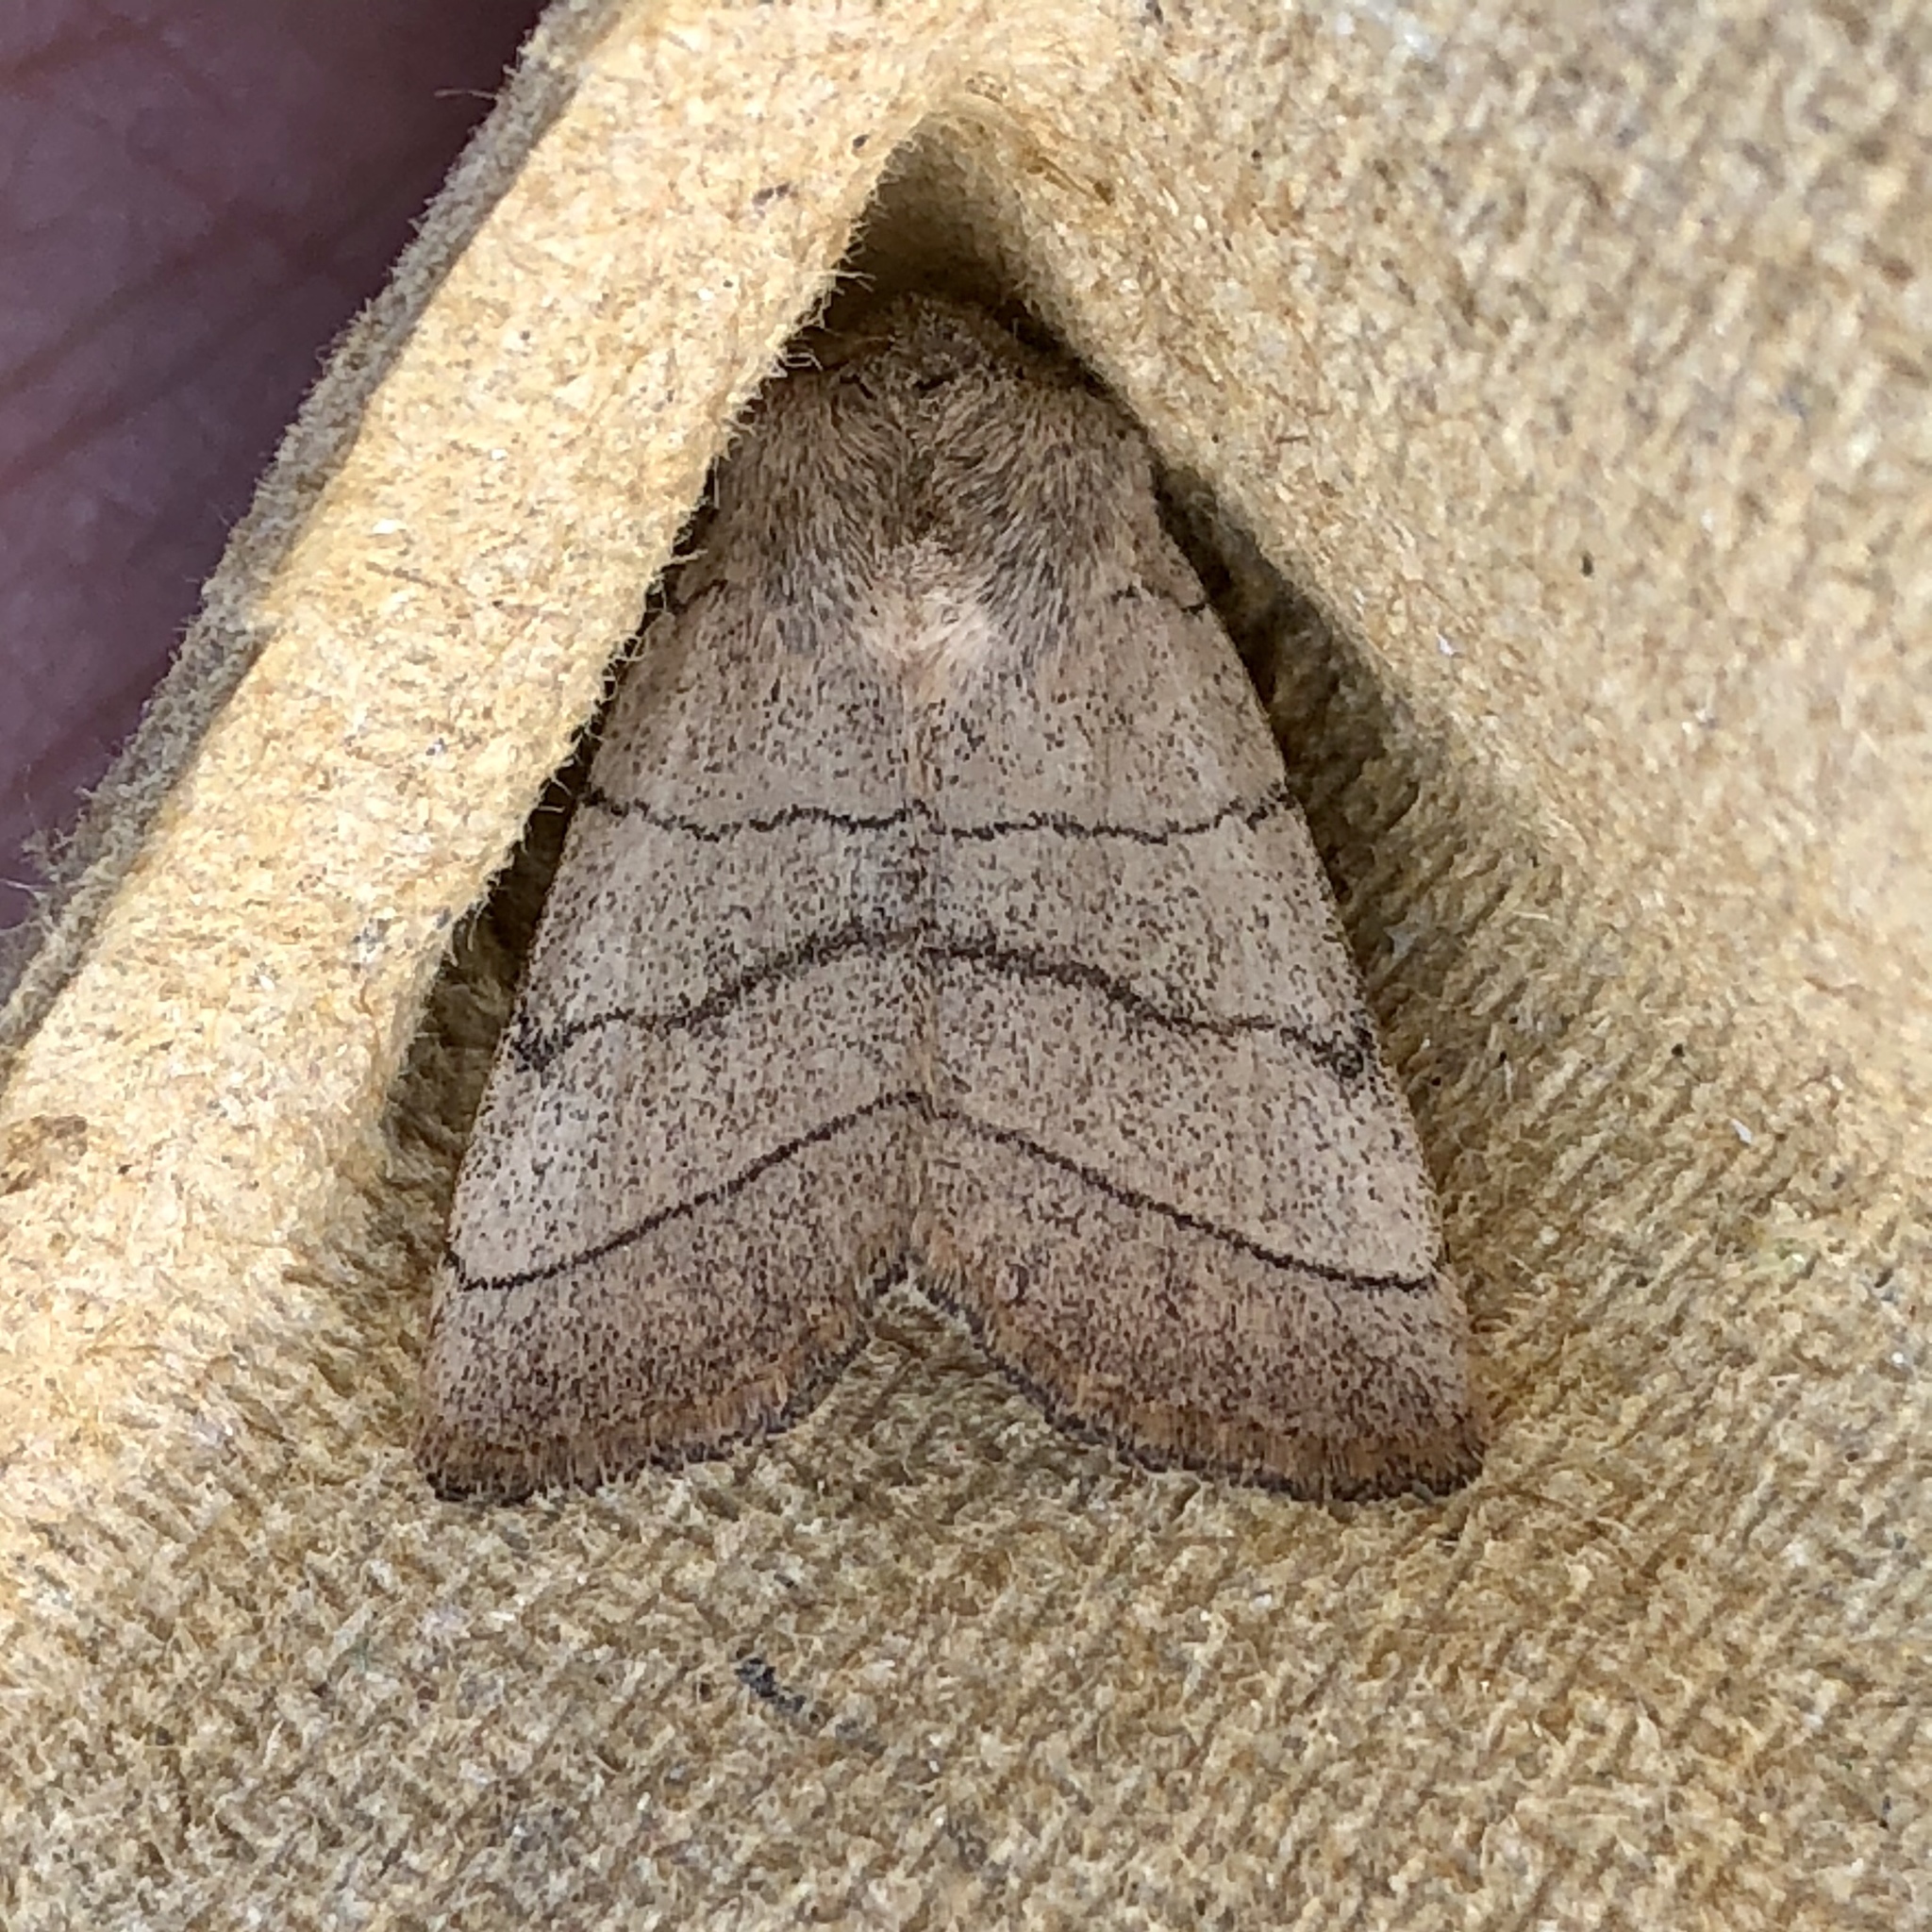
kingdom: Animalia
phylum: Arthropoda
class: Insecta
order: Lepidoptera
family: Noctuidae
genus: Charanyca
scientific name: Charanyca trigrammica
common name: Treble lines
